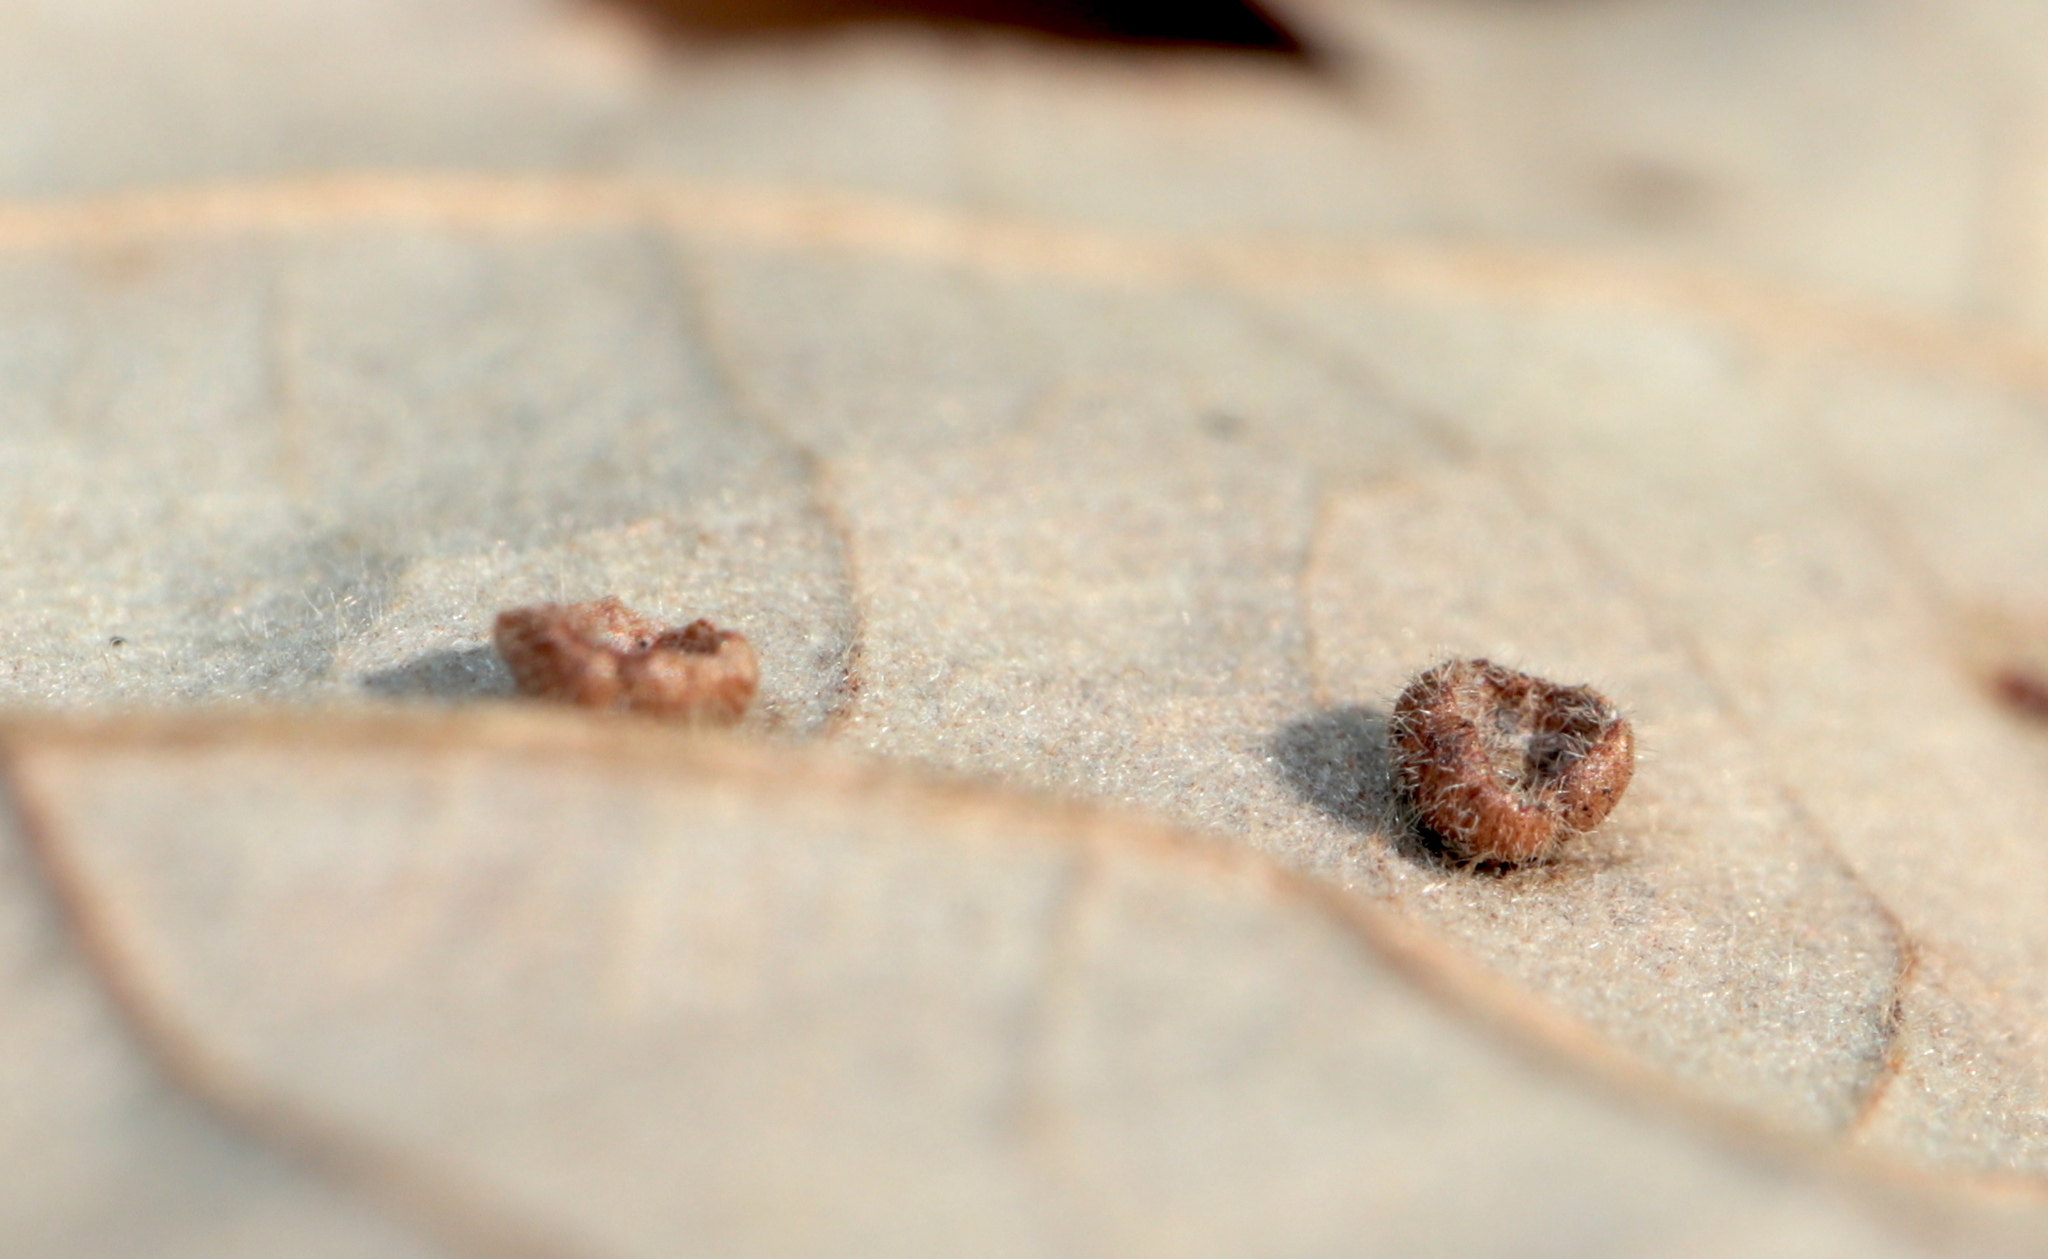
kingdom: Animalia
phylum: Arthropoda
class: Insecta
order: Hymenoptera
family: Cynipidae
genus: Neuroterus
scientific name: Neuroterus
